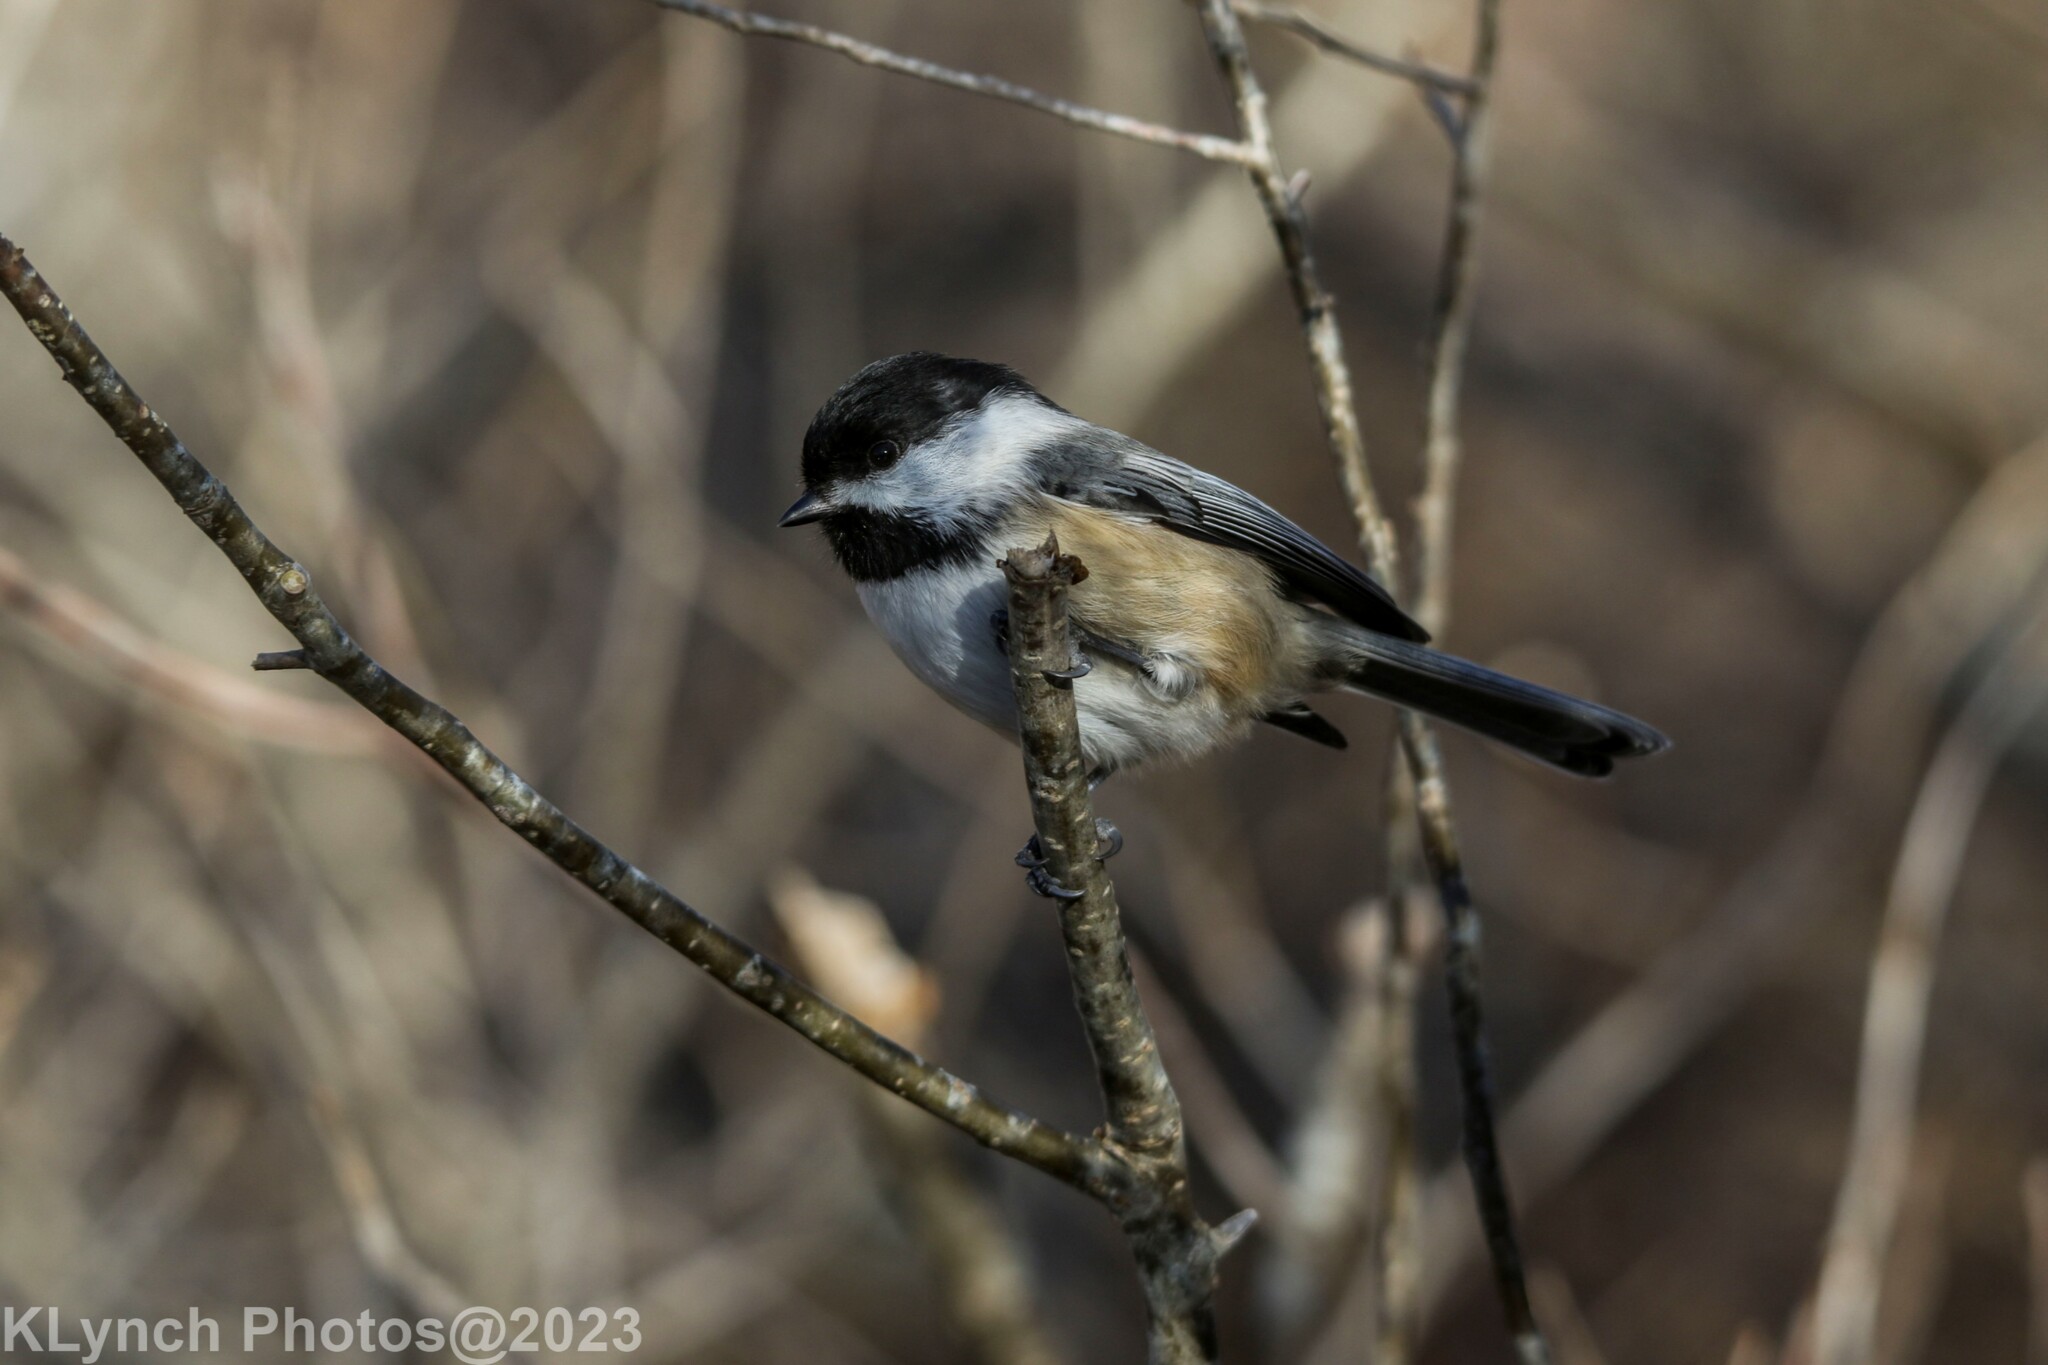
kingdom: Animalia
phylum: Chordata
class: Aves
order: Passeriformes
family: Paridae
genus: Poecile
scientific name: Poecile atricapillus
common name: Black-capped chickadee
